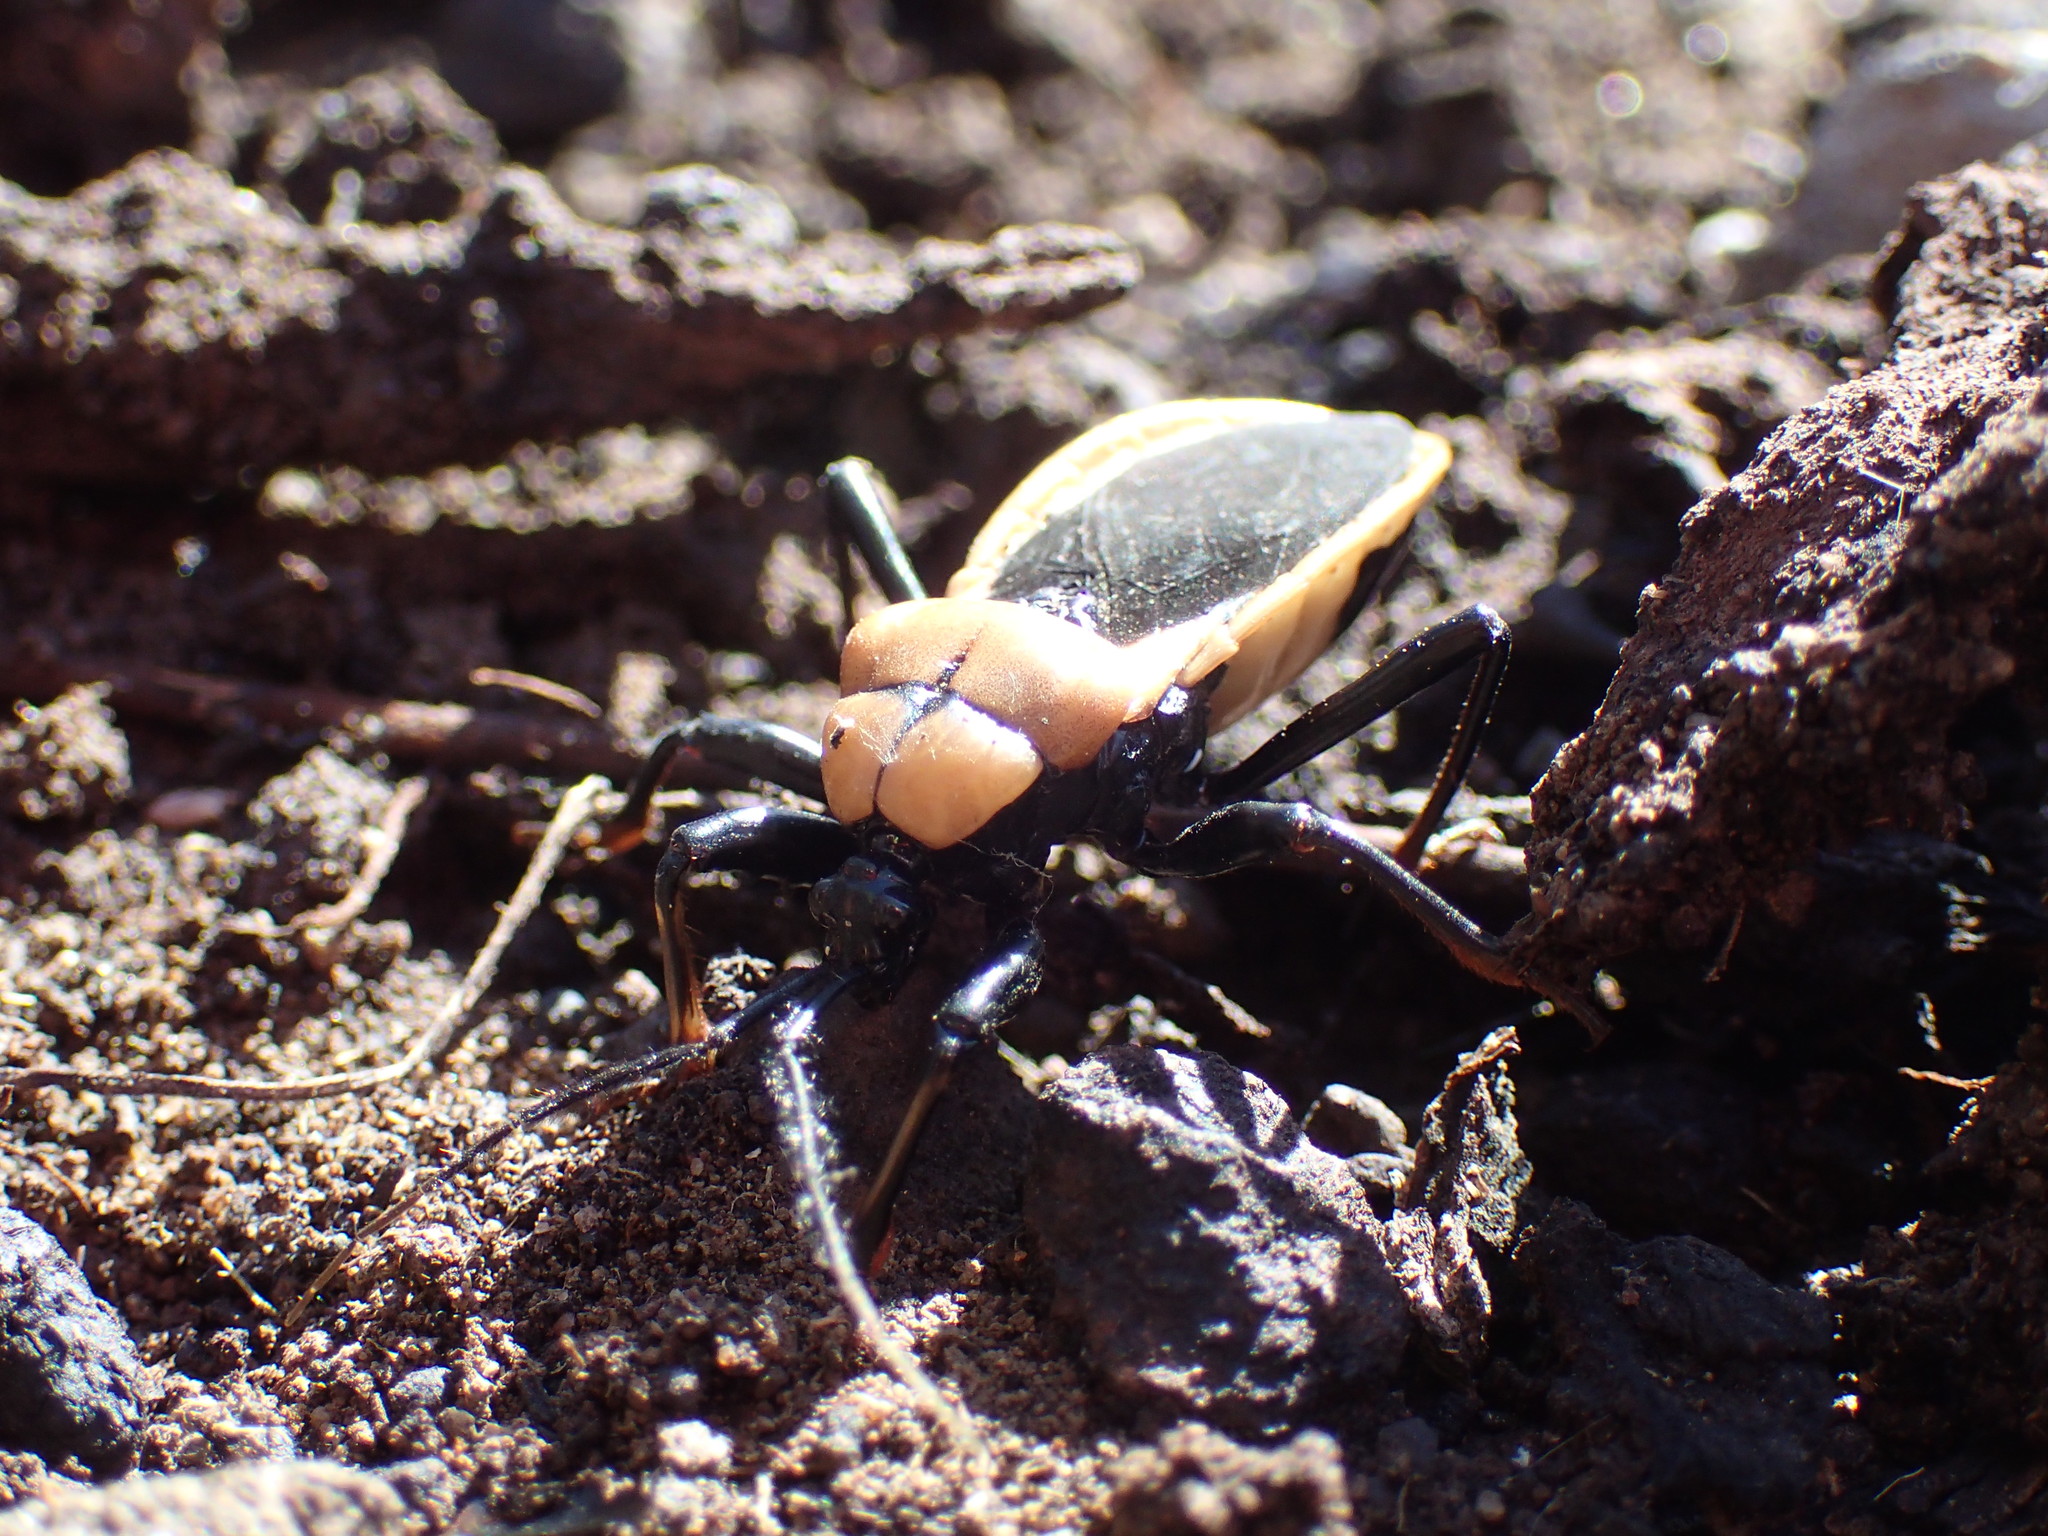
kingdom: Animalia
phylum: Arthropoda
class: Insecta
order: Hemiptera
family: Reduviidae
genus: Ectrichodia
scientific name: Ectrichodia crux
